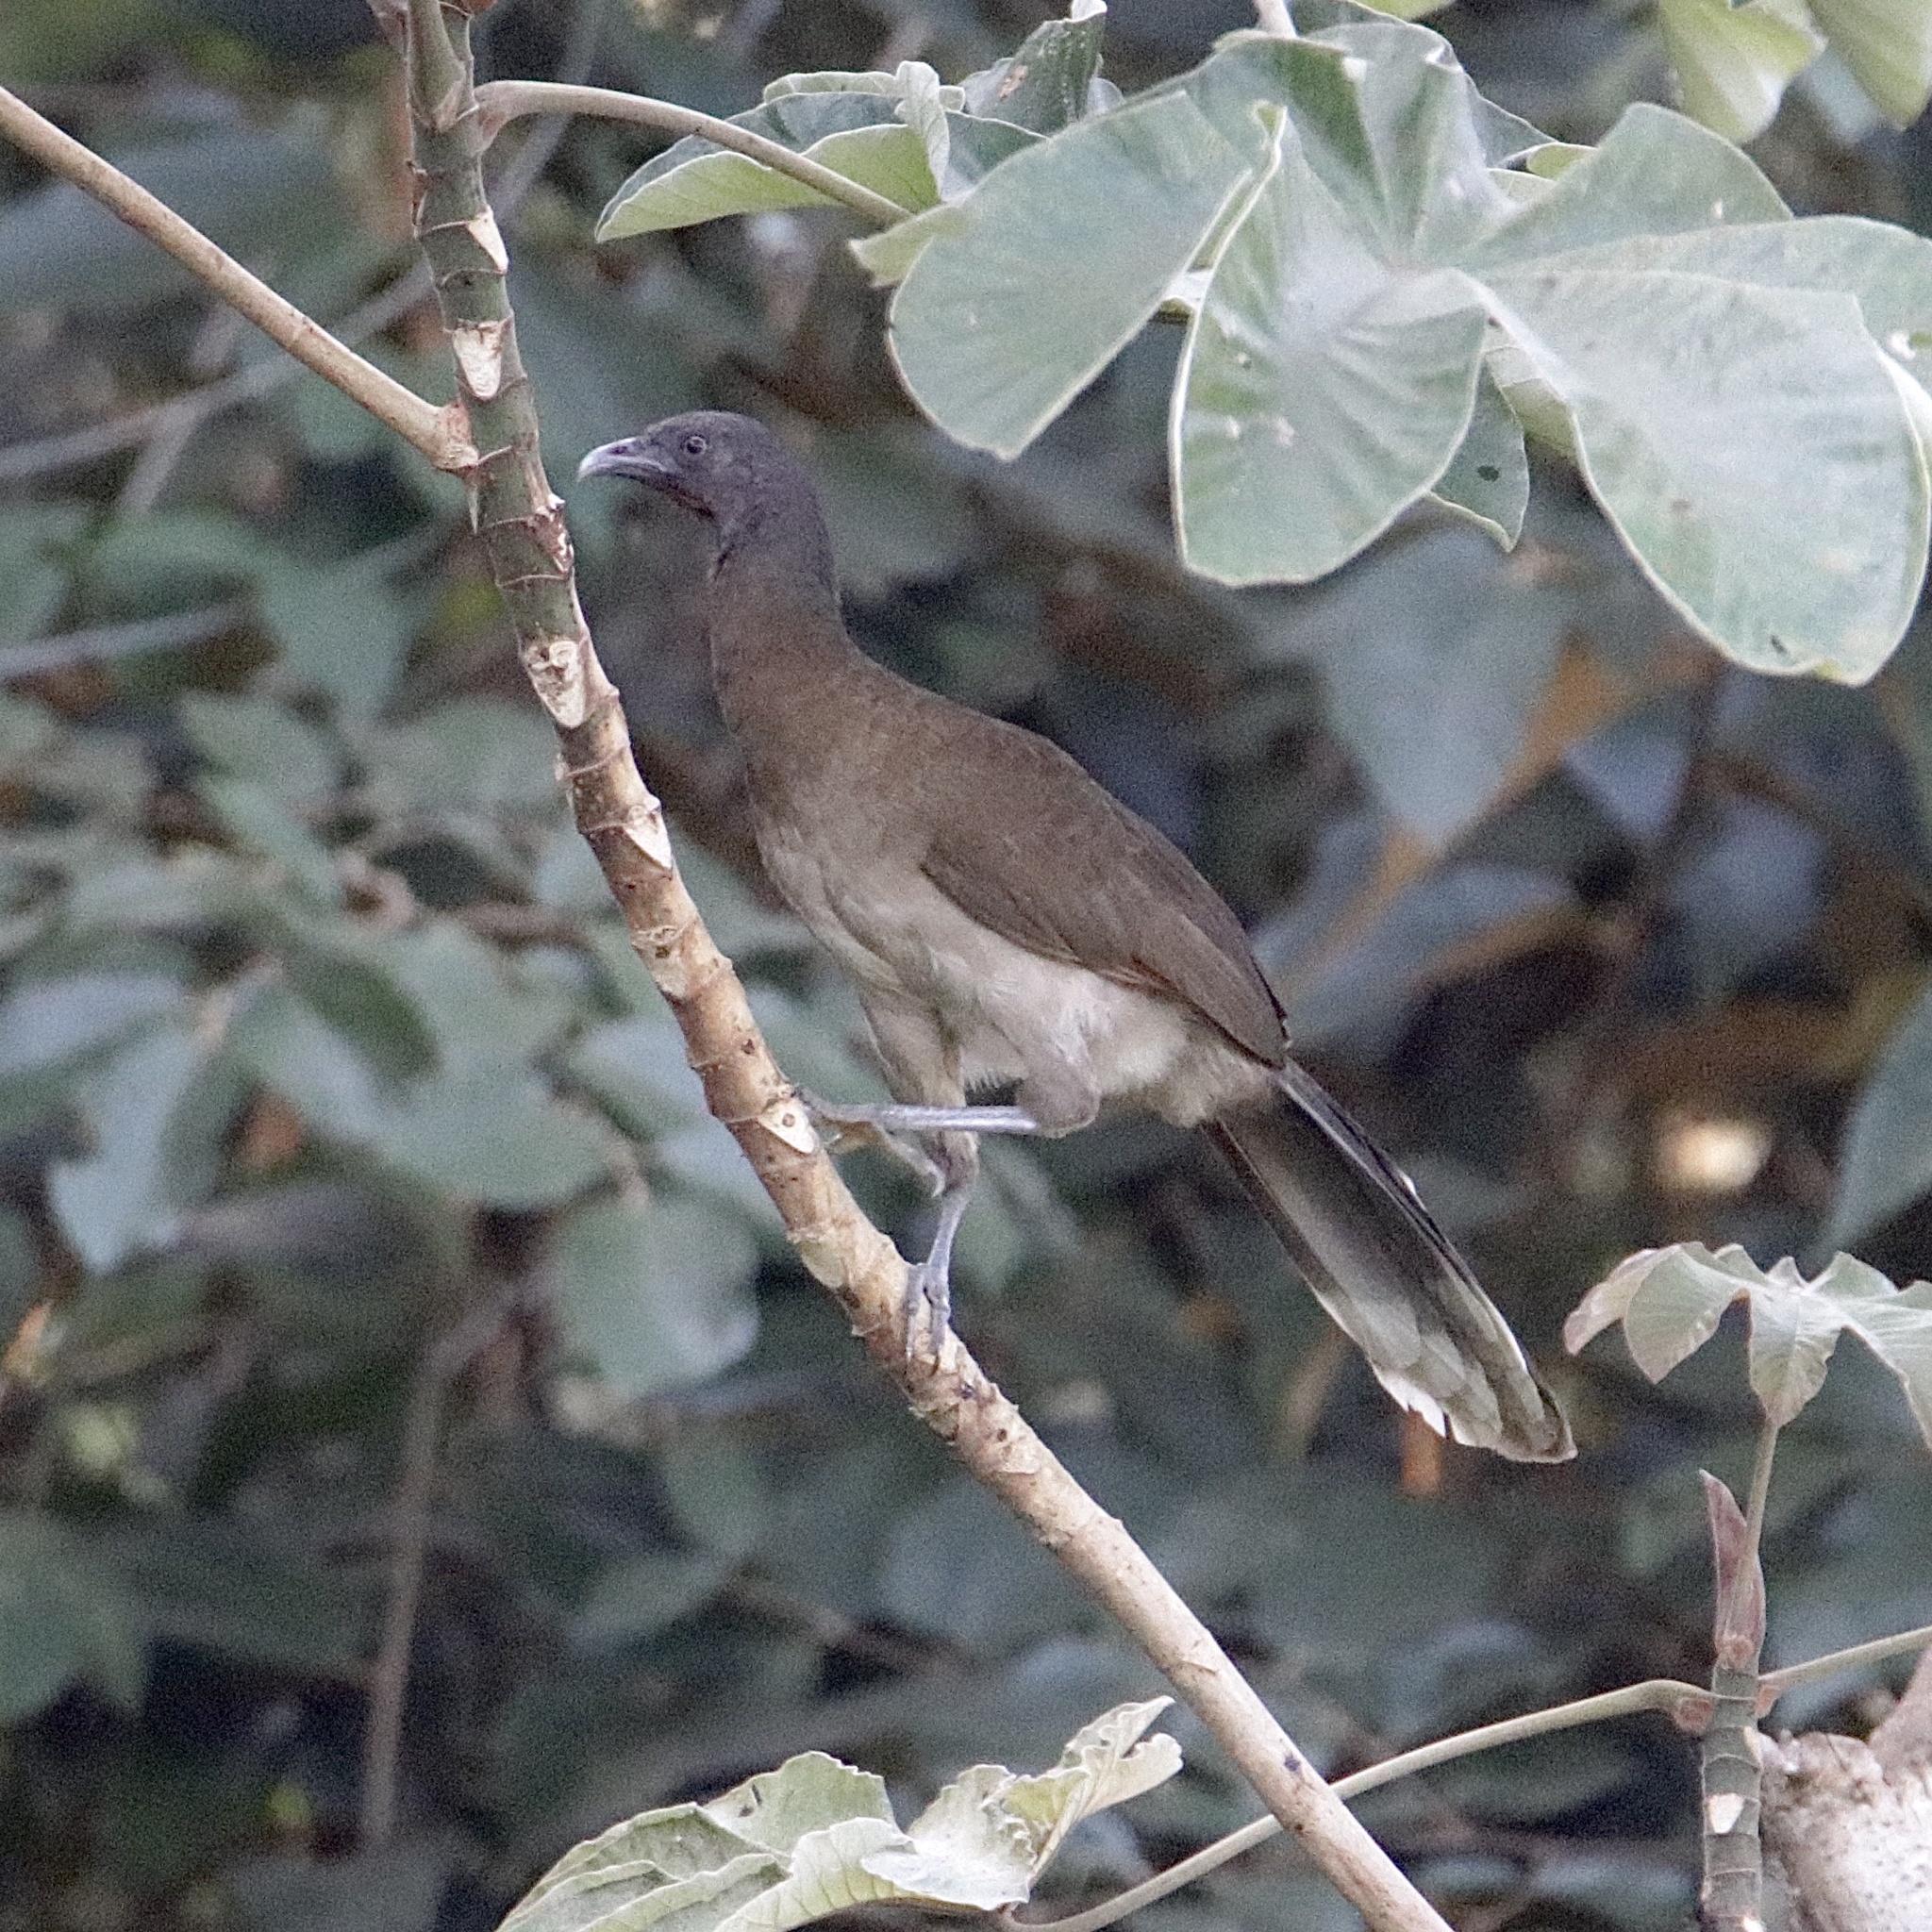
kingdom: Animalia
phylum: Chordata
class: Aves
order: Galliformes
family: Cracidae
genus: Ortalis
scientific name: Ortalis cinereiceps
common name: Grey-headed chachalaca
